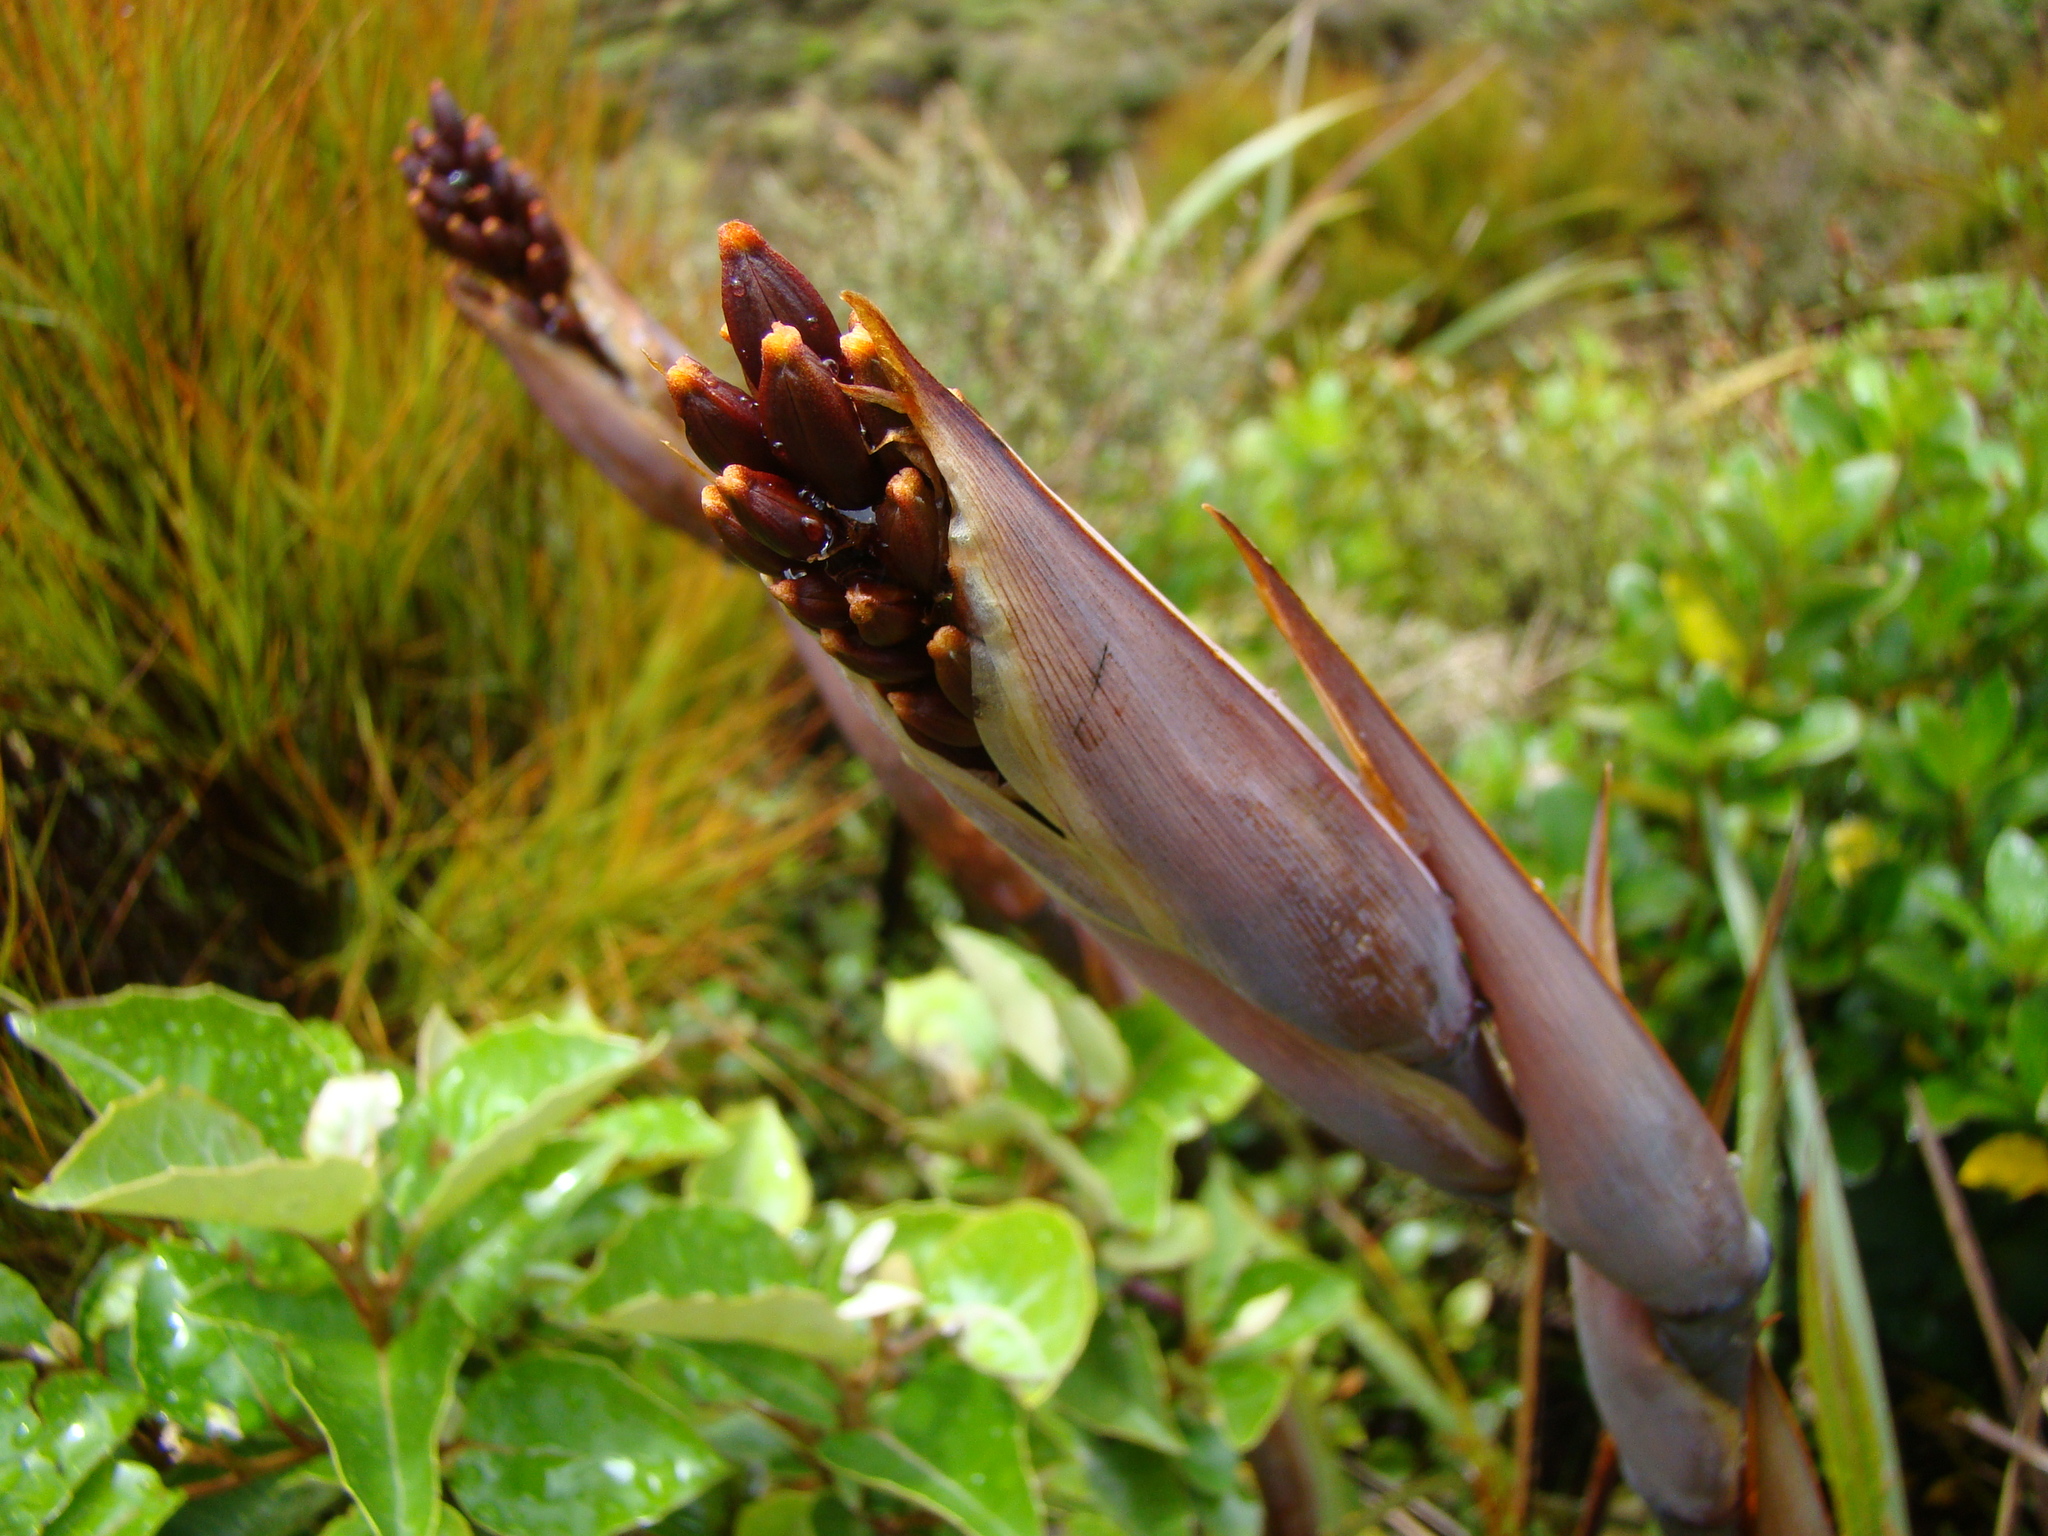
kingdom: Plantae
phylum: Tracheophyta
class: Liliopsida
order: Asparagales
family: Asphodelaceae
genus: Phormium
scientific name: Phormium colensoi
